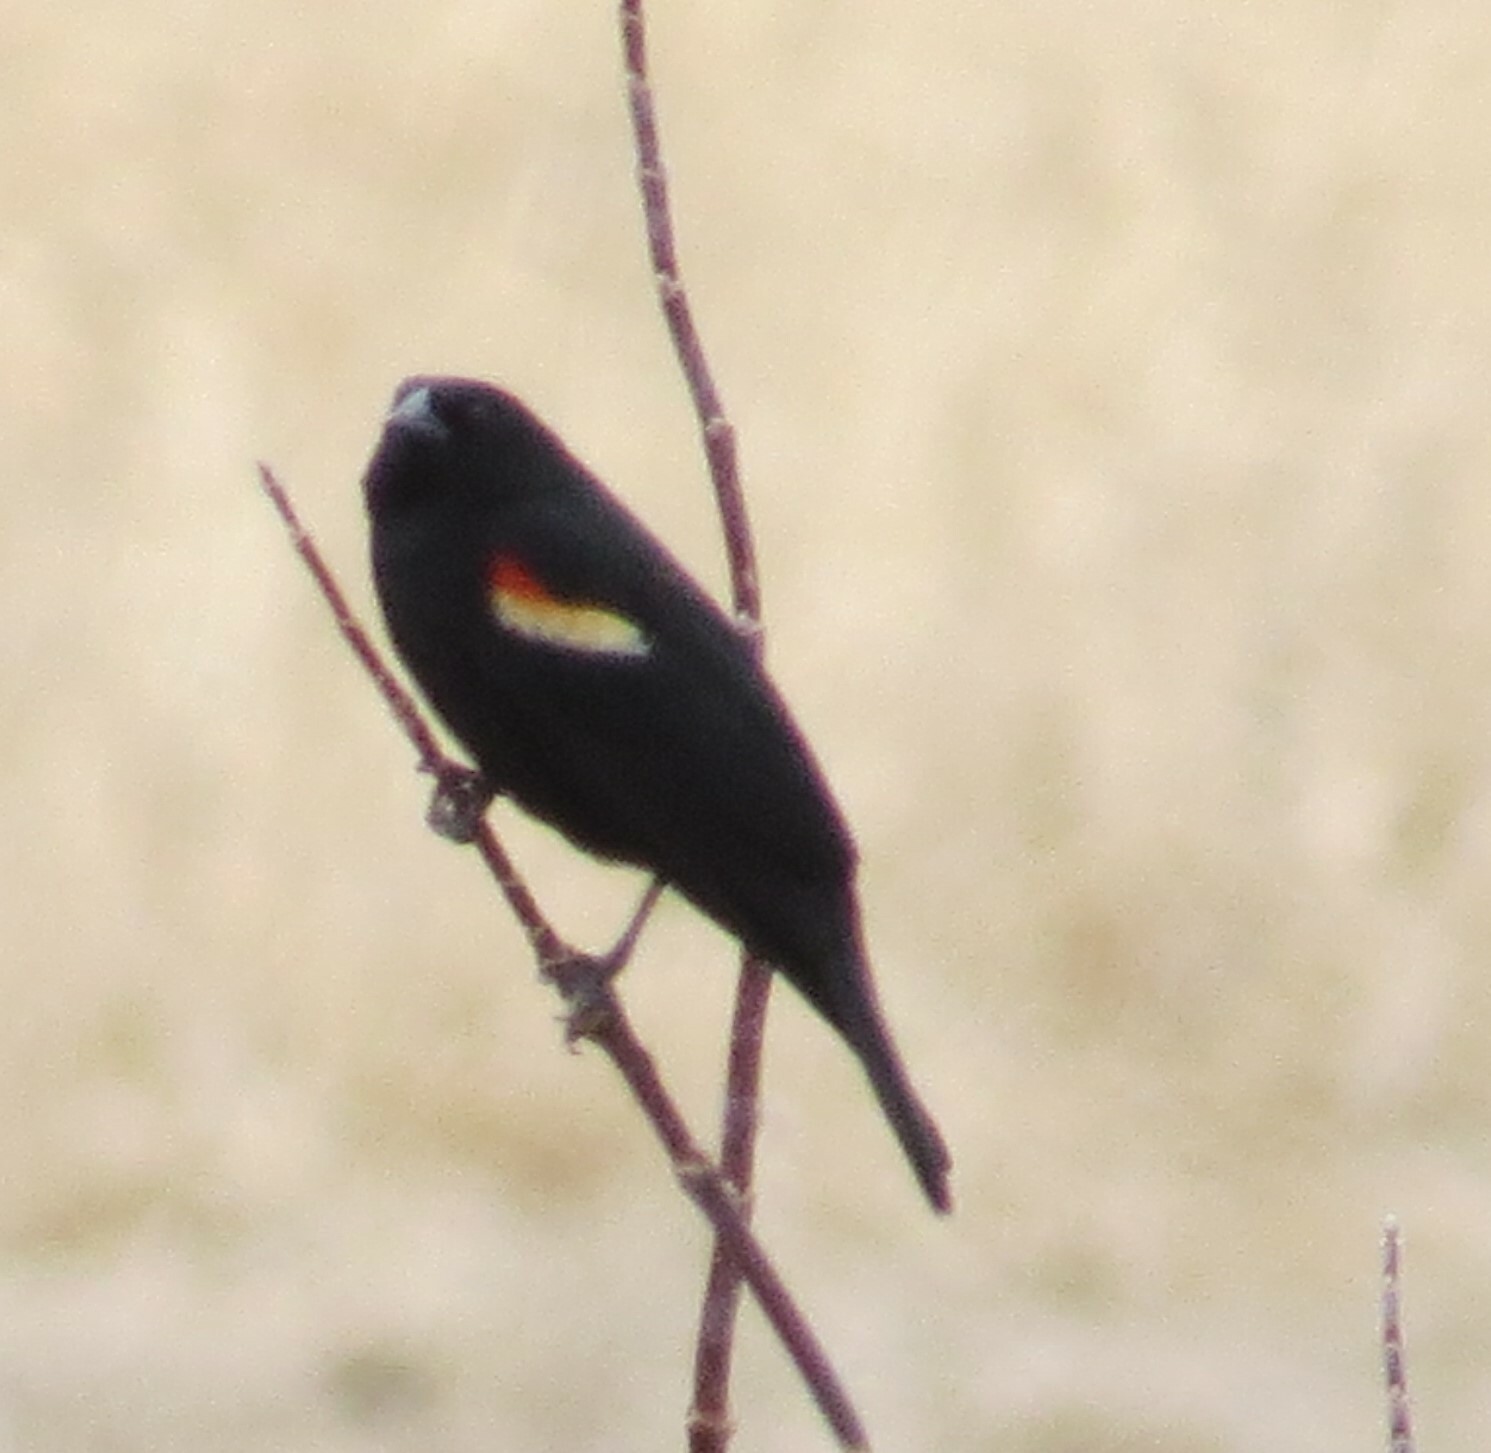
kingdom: Animalia
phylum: Chordata
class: Aves
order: Passeriformes
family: Icteridae
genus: Agelaius
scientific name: Agelaius phoeniceus
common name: Red-winged blackbird
